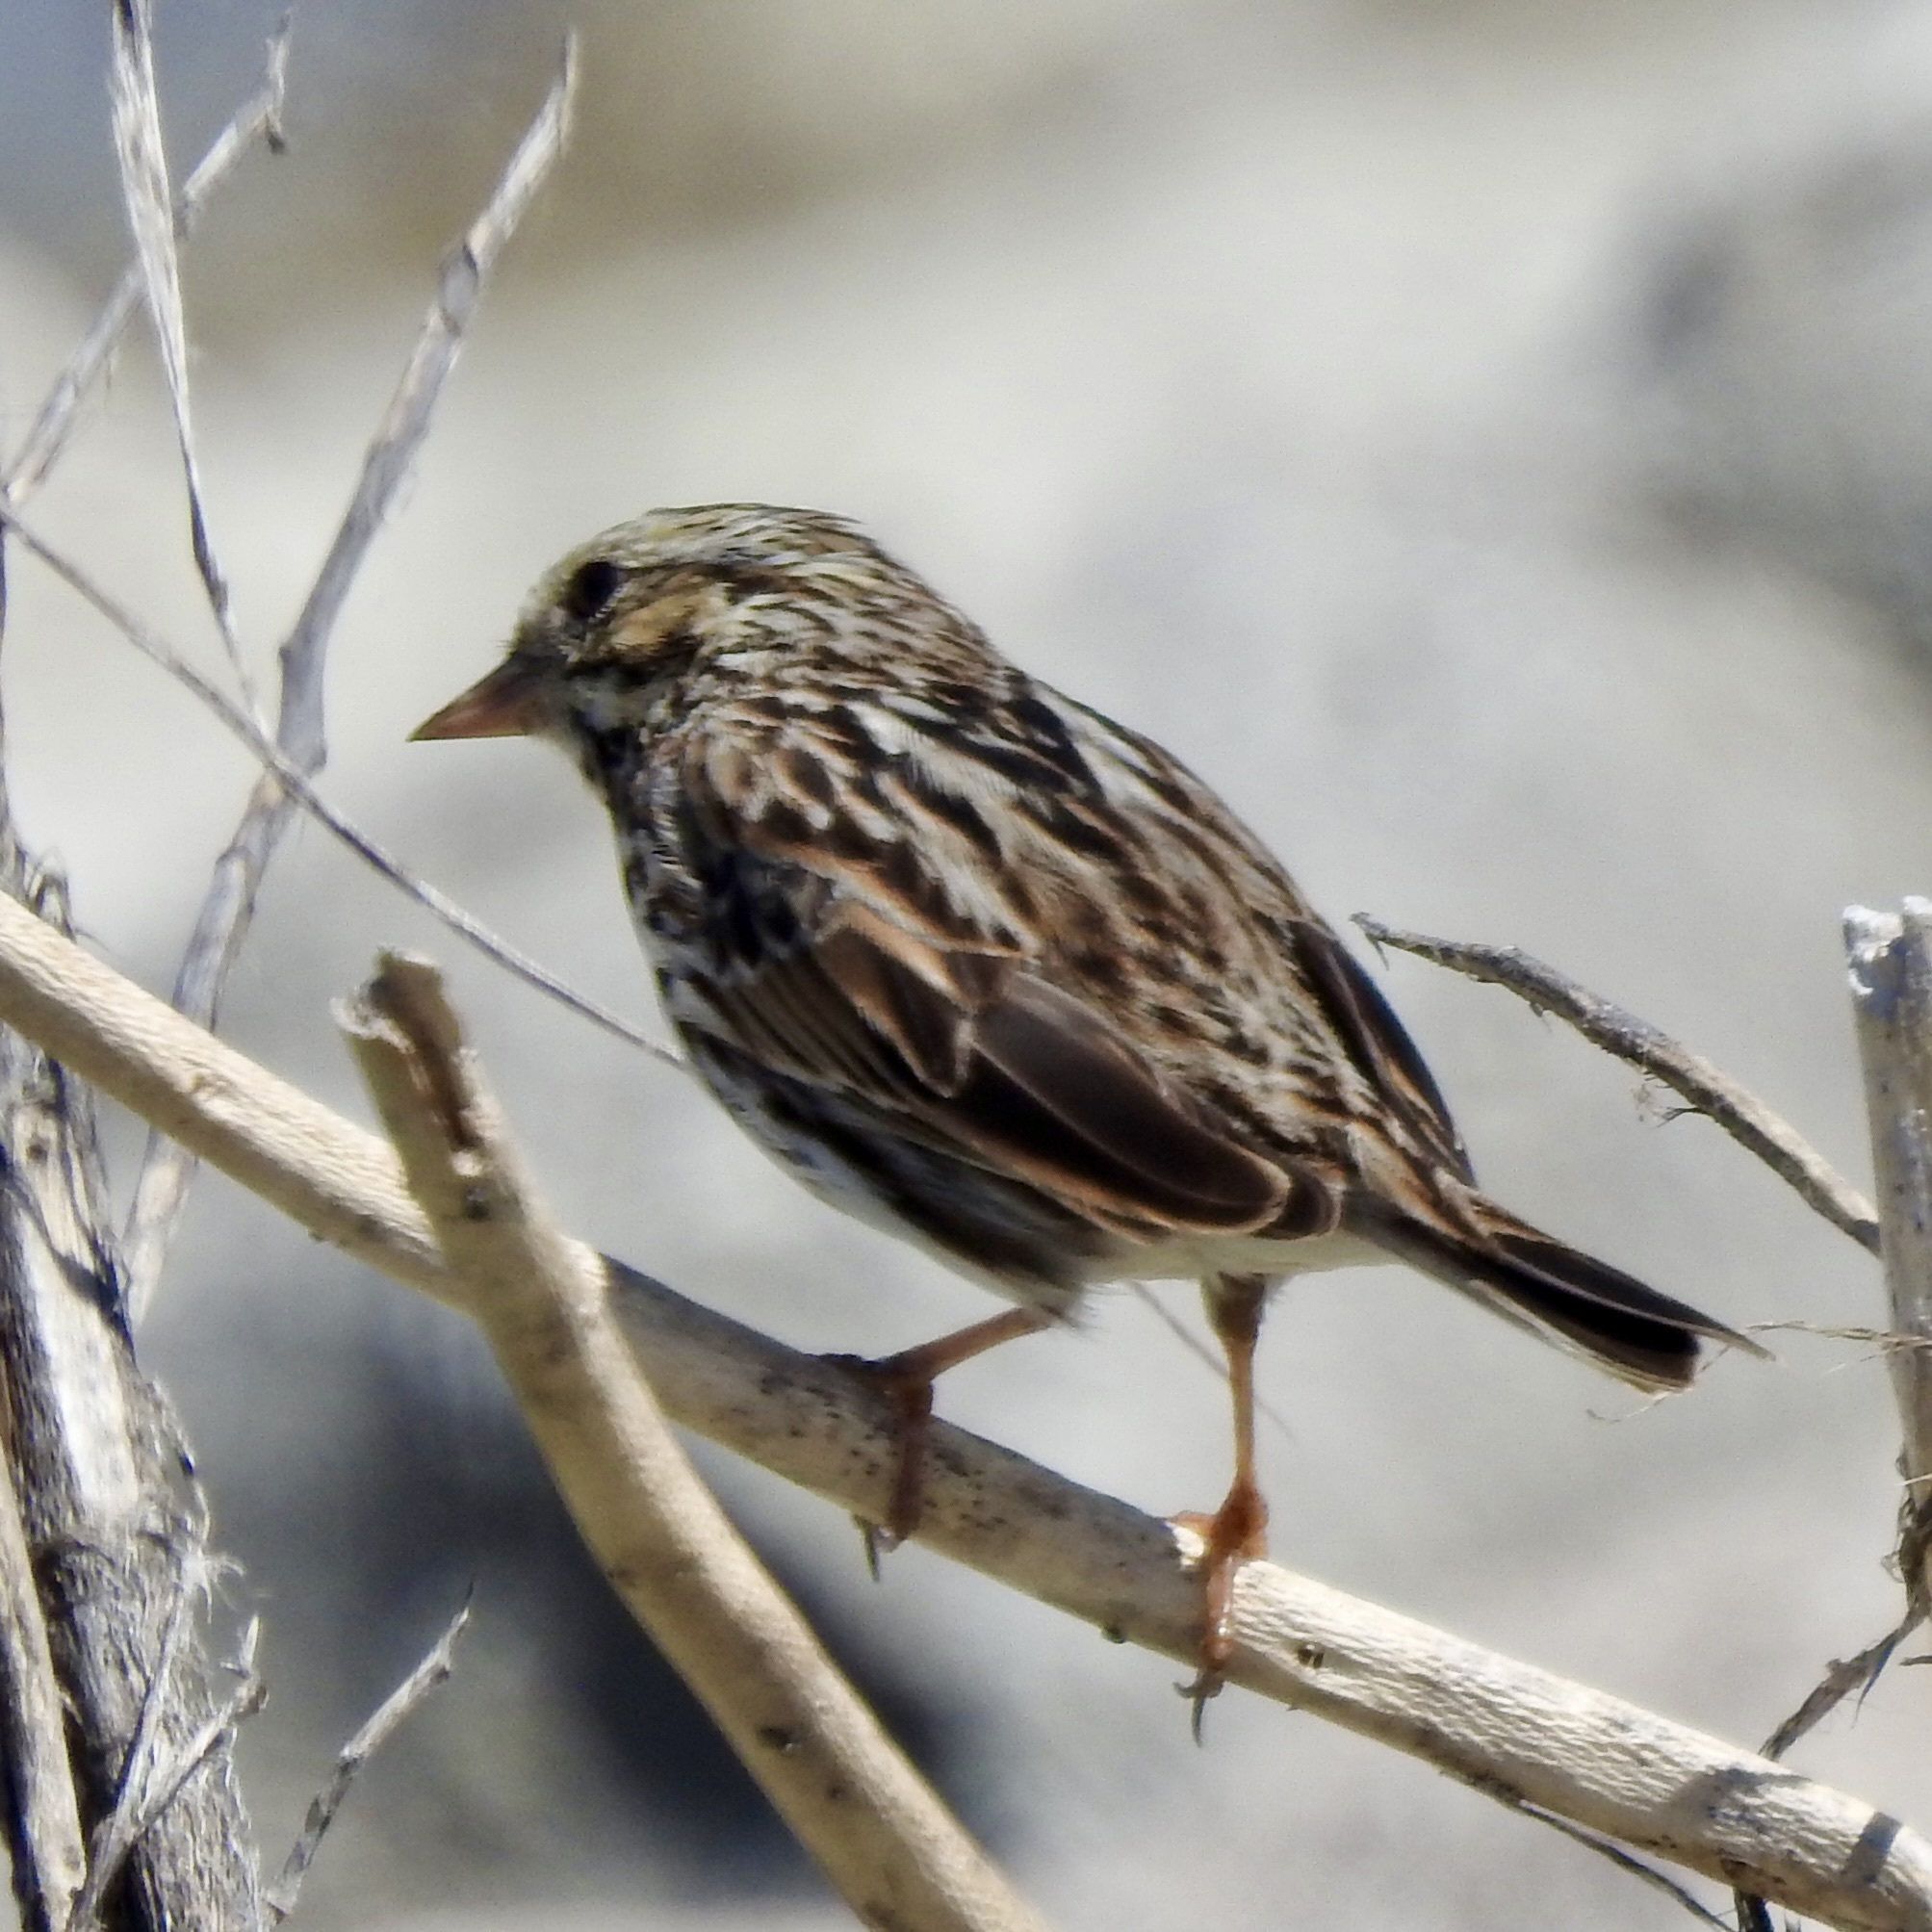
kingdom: Animalia
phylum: Chordata
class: Aves
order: Passeriformes
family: Passerellidae
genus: Passerculus
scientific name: Passerculus sandwichensis
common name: Savannah sparrow
